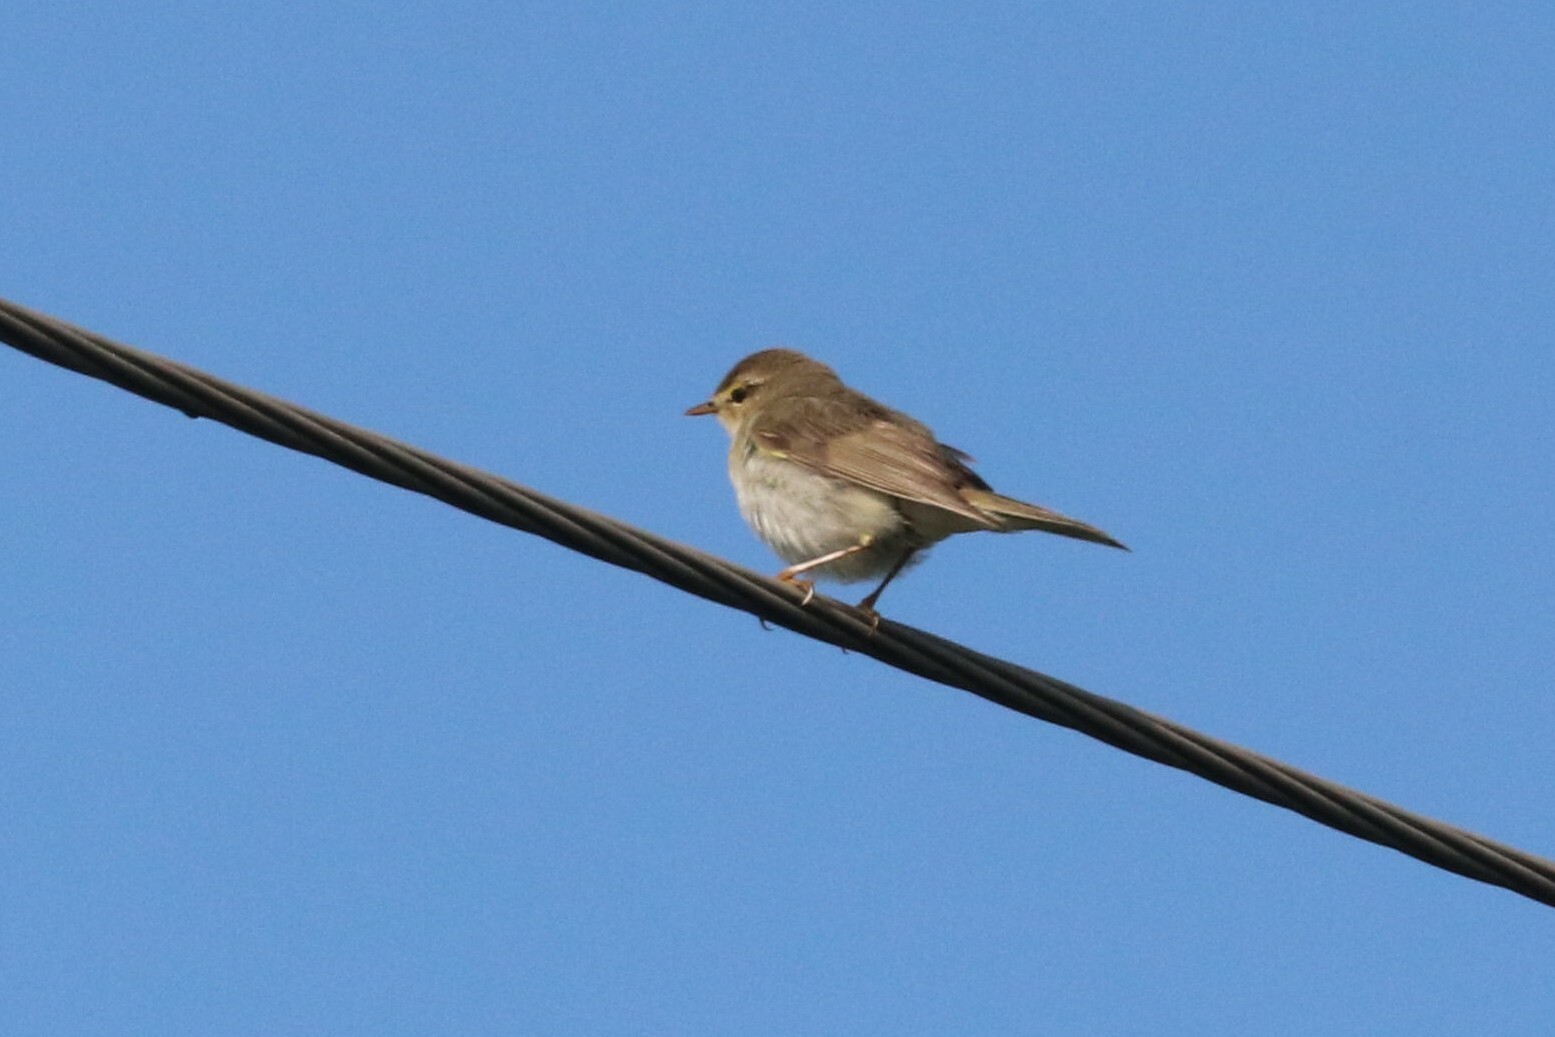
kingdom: Animalia
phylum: Chordata
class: Aves
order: Passeriformes
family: Phylloscopidae
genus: Phylloscopus
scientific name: Phylloscopus trochilus
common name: Willow warbler
